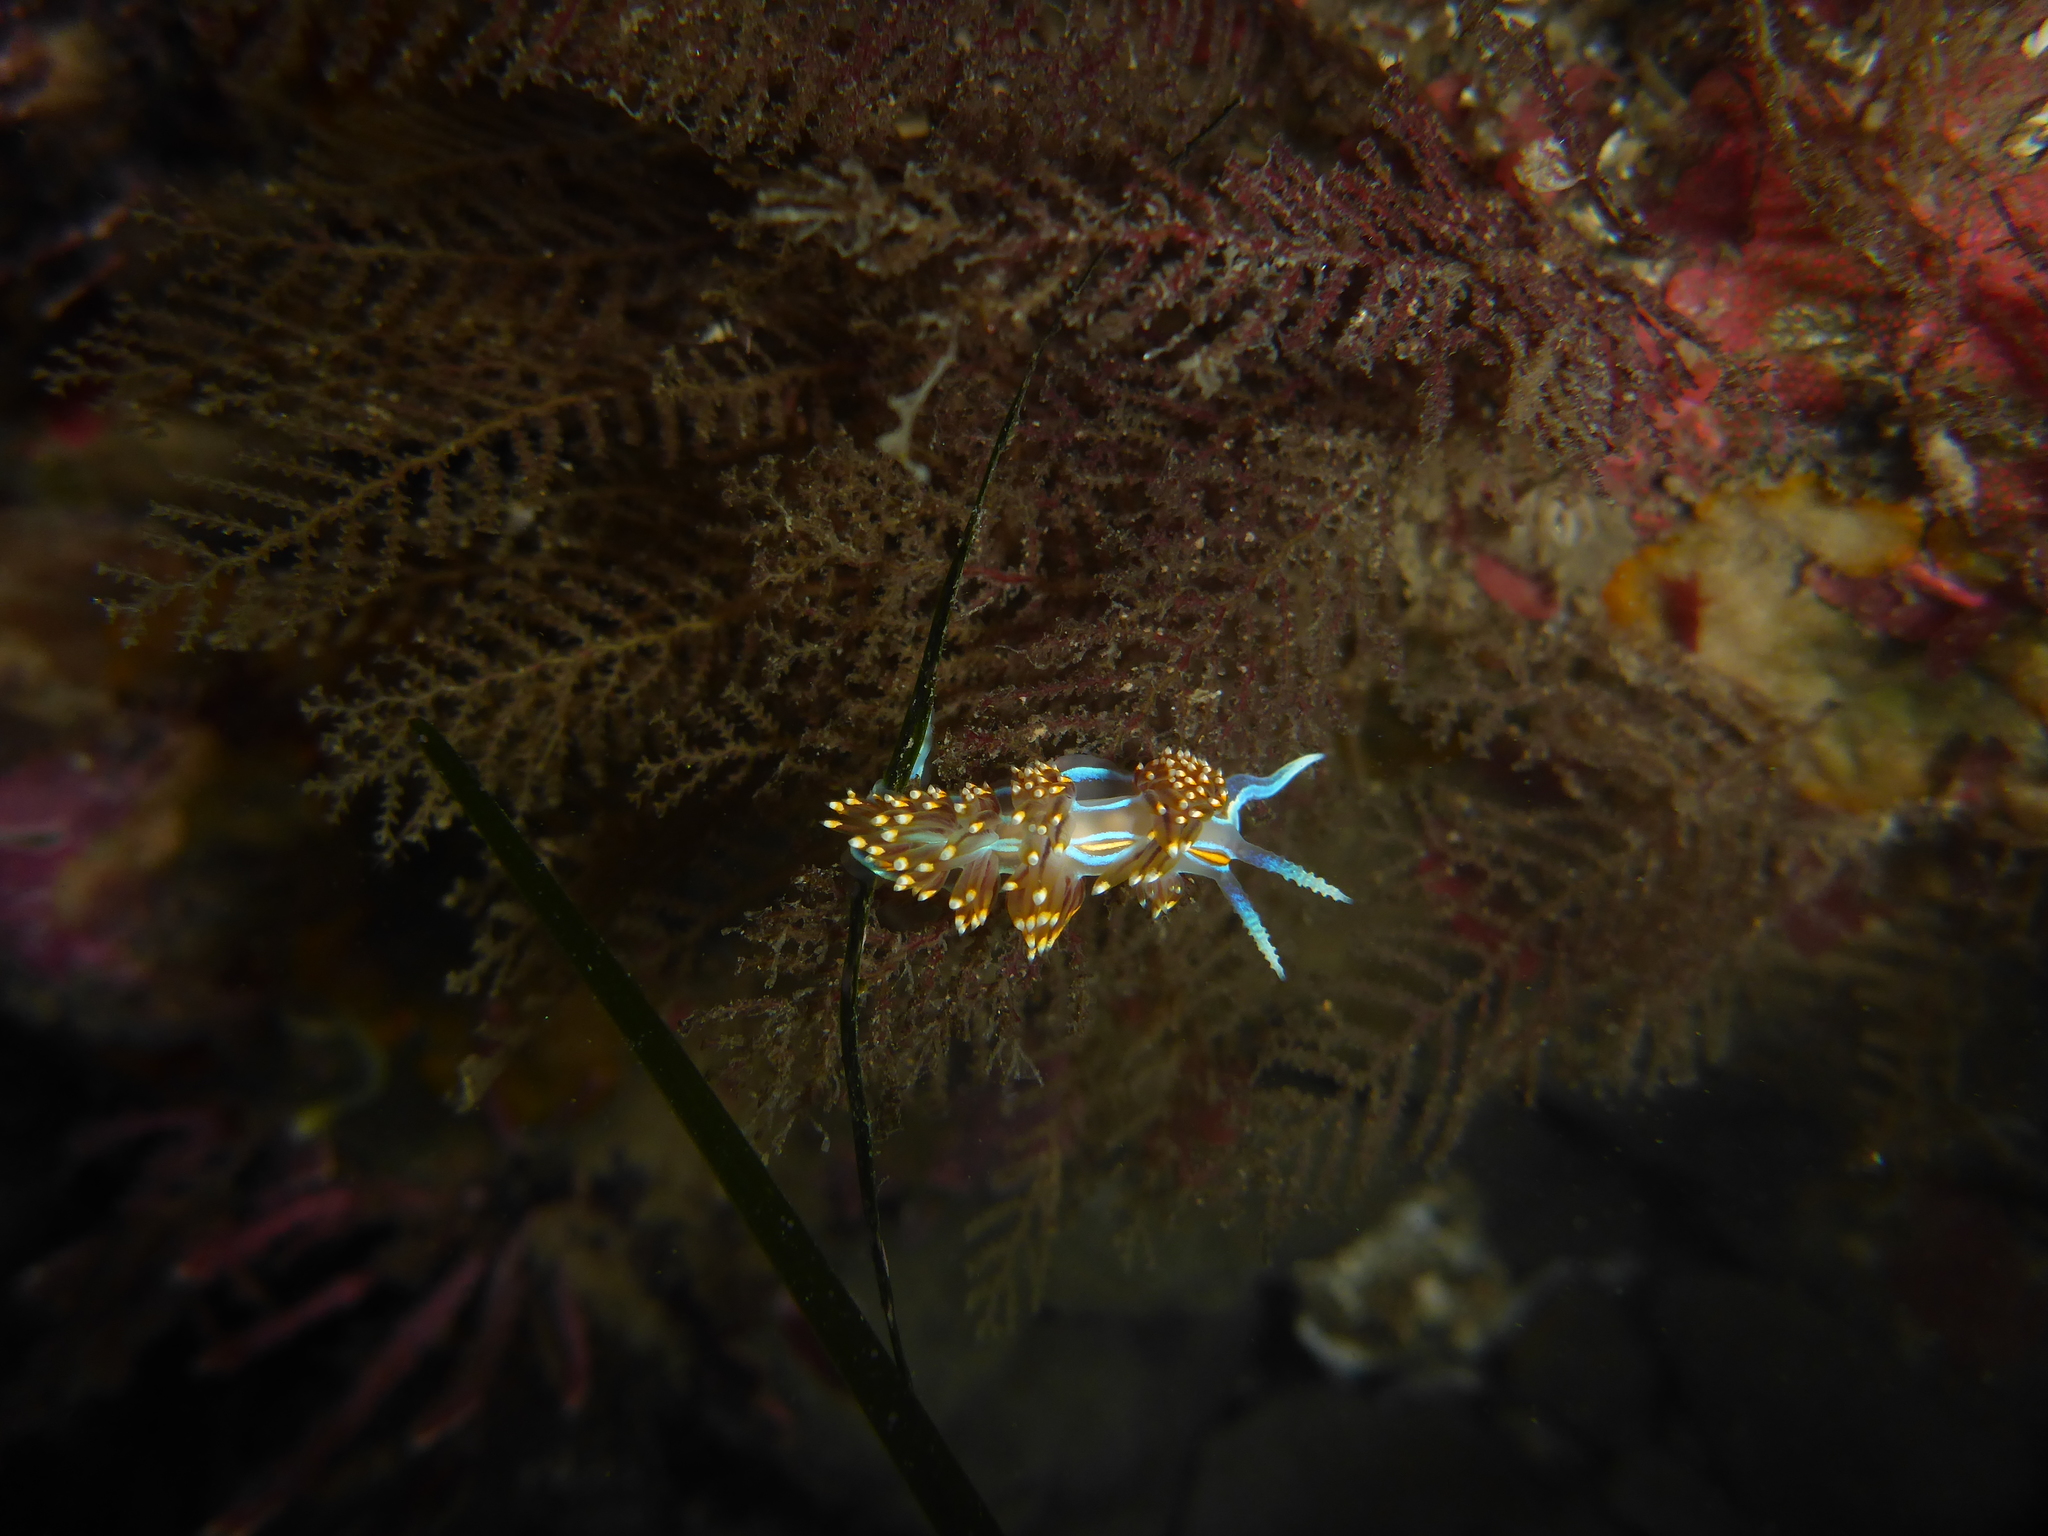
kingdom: Animalia
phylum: Mollusca
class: Gastropoda
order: Nudibranchia
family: Myrrhinidae
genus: Hermissenda
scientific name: Hermissenda opalescens
